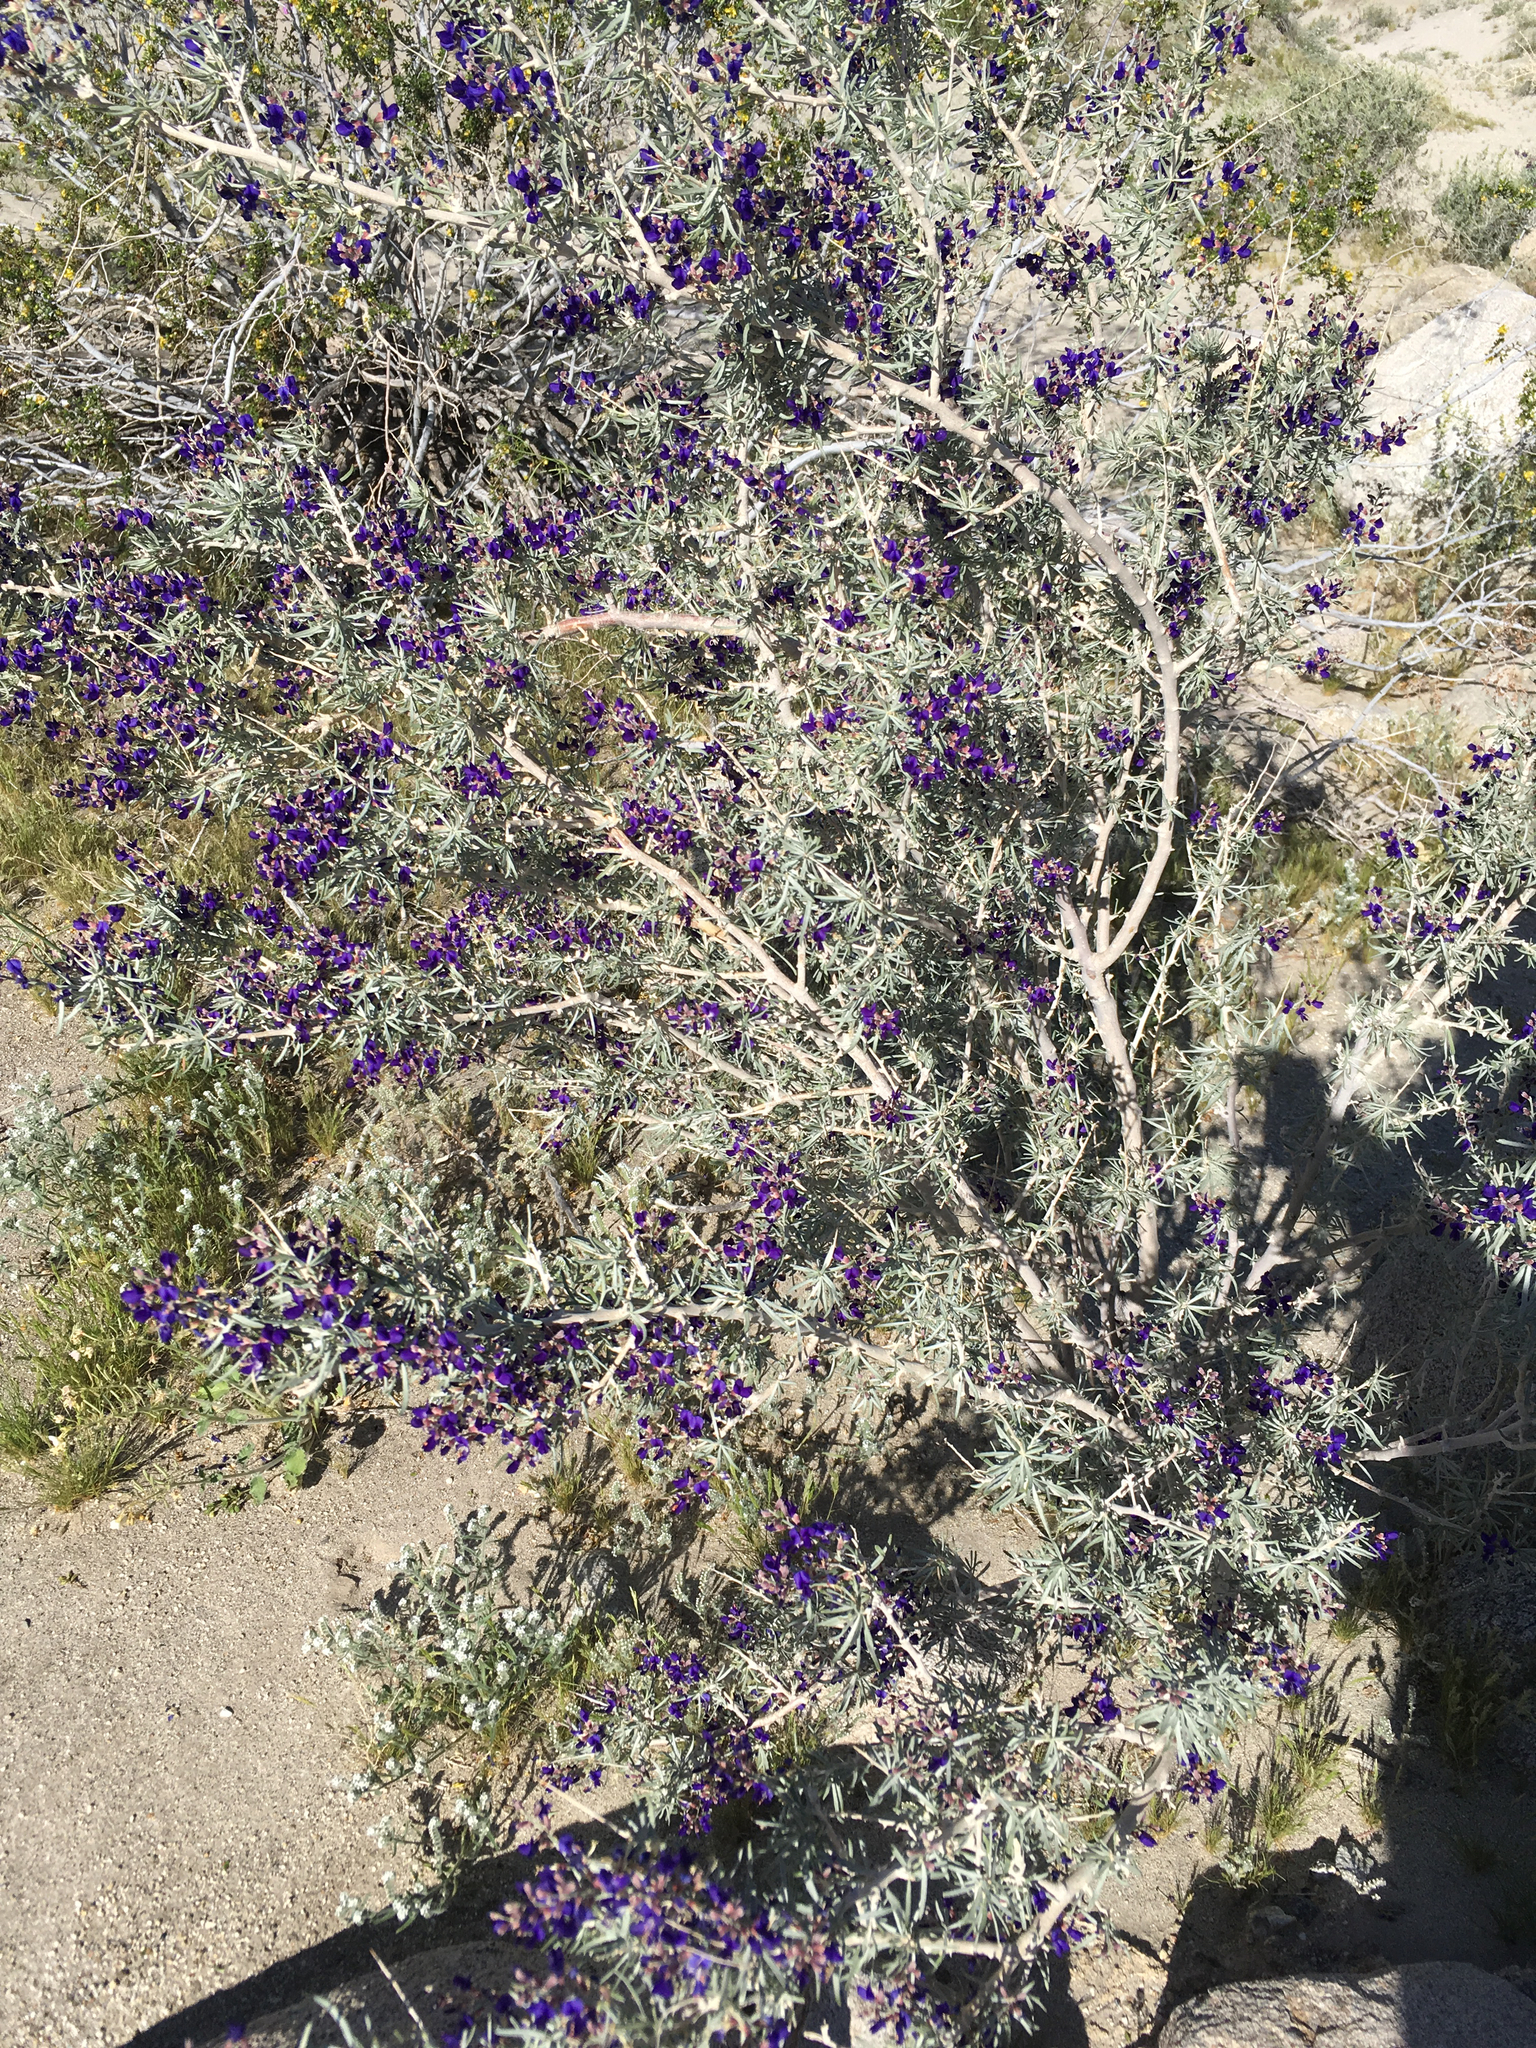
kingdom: Plantae
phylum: Tracheophyta
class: Magnoliopsida
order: Fabales
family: Fabaceae
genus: Psorothamnus
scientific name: Psorothamnus schottii
